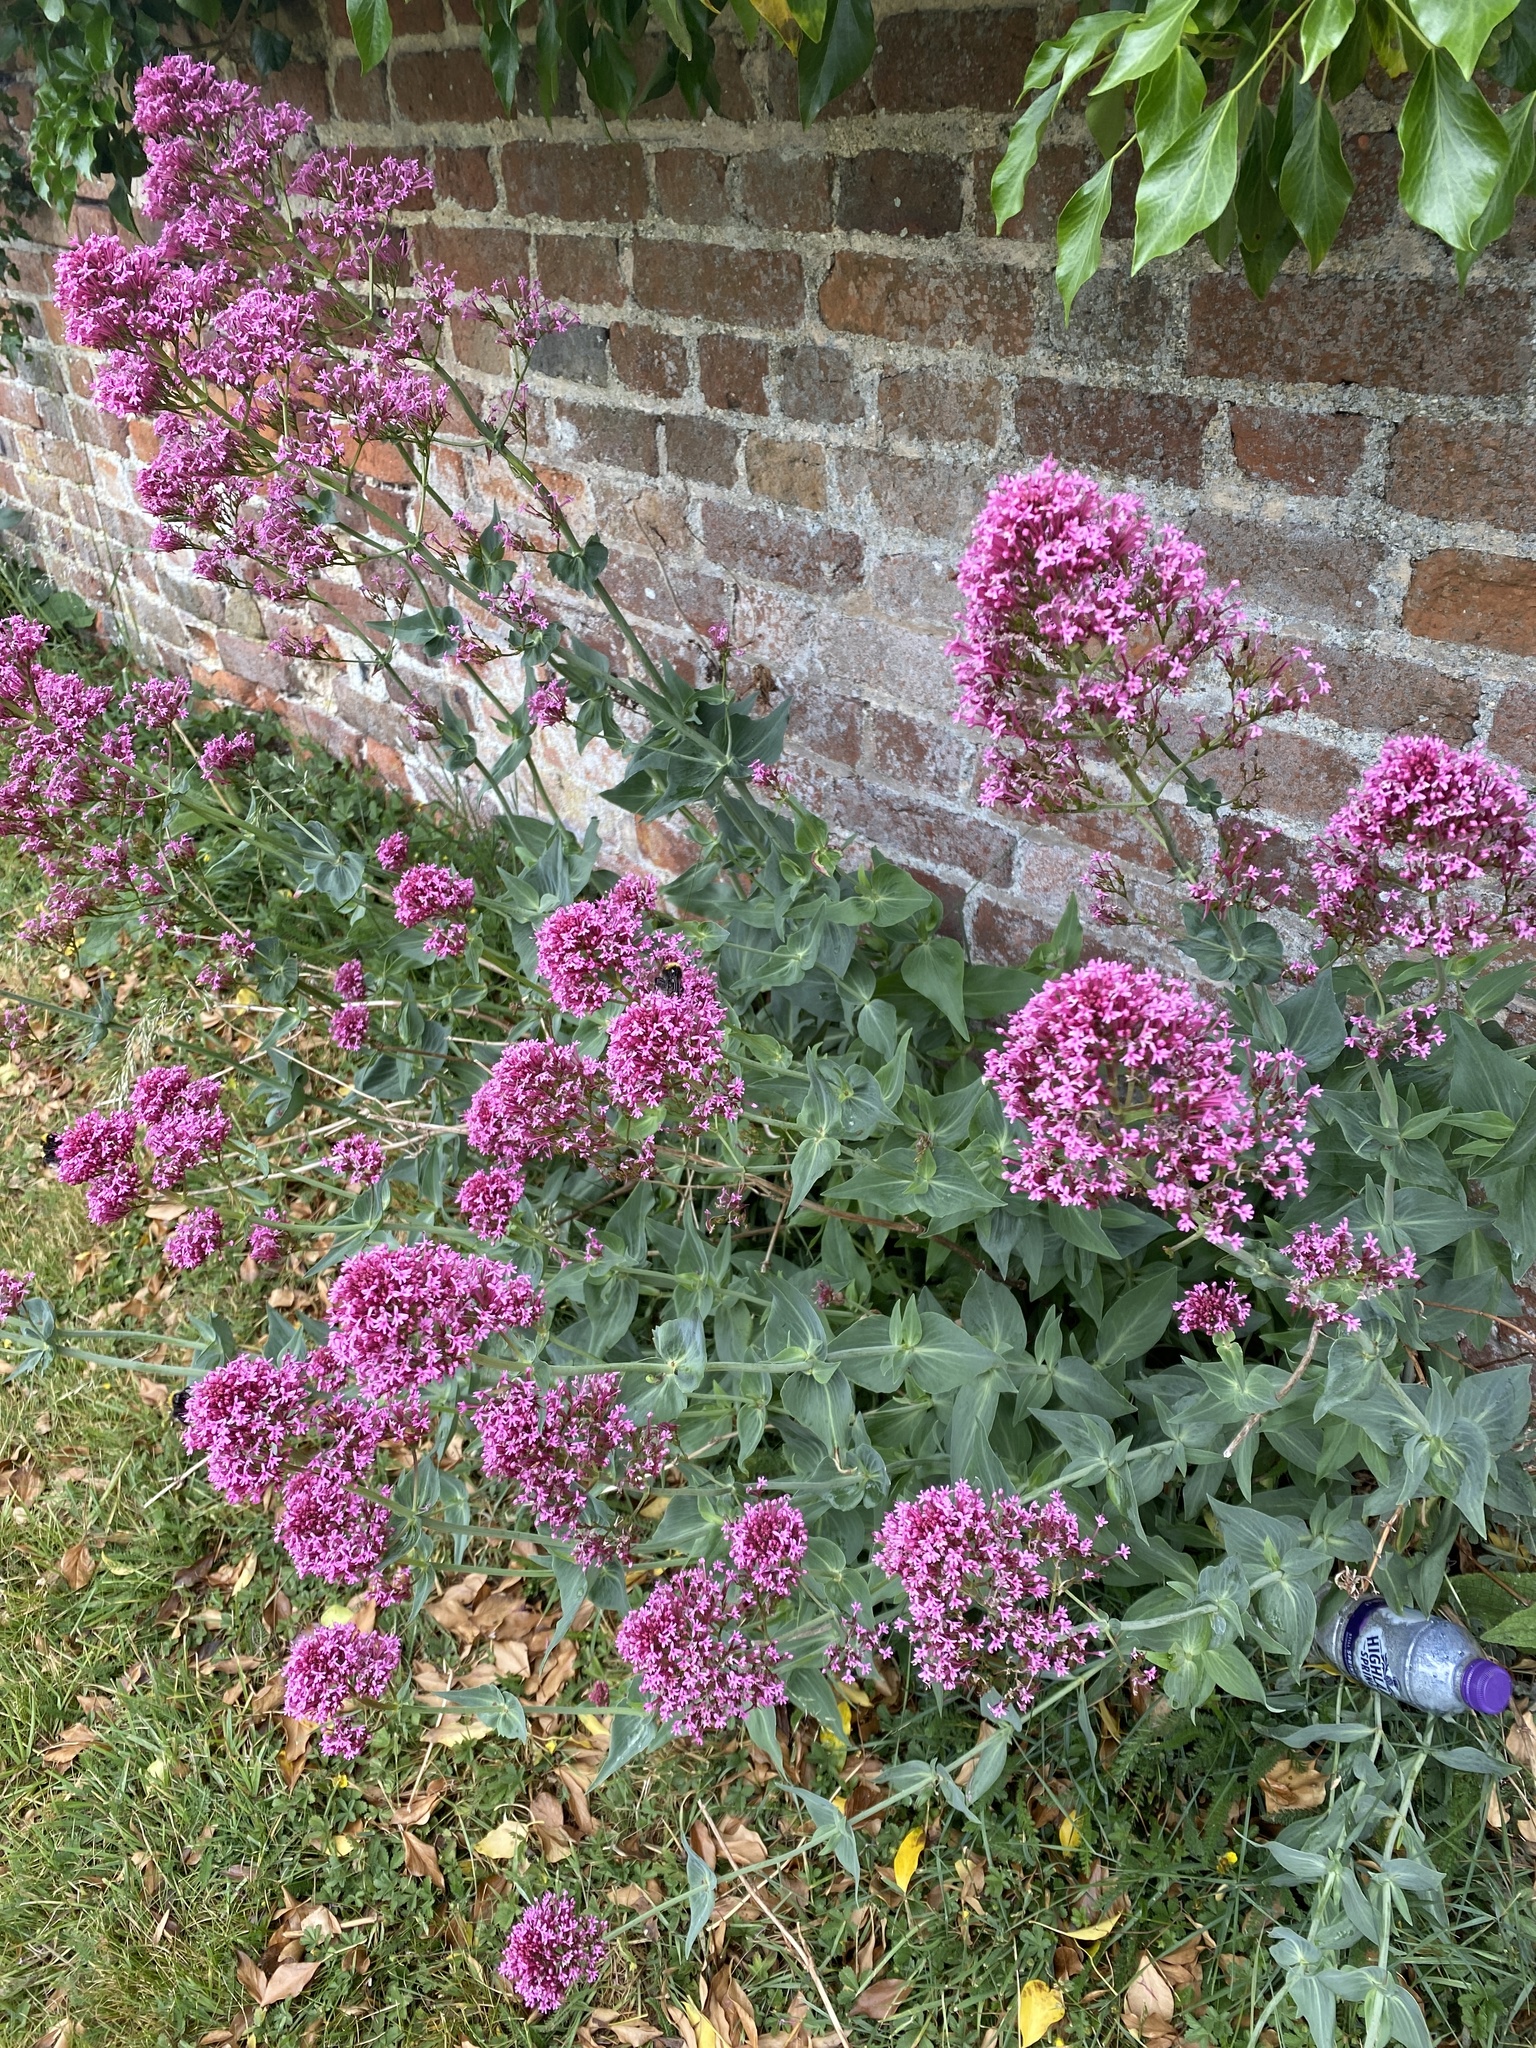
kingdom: Plantae
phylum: Tracheophyta
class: Magnoliopsida
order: Dipsacales
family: Caprifoliaceae
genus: Centranthus
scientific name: Centranthus ruber
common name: Red valerian
